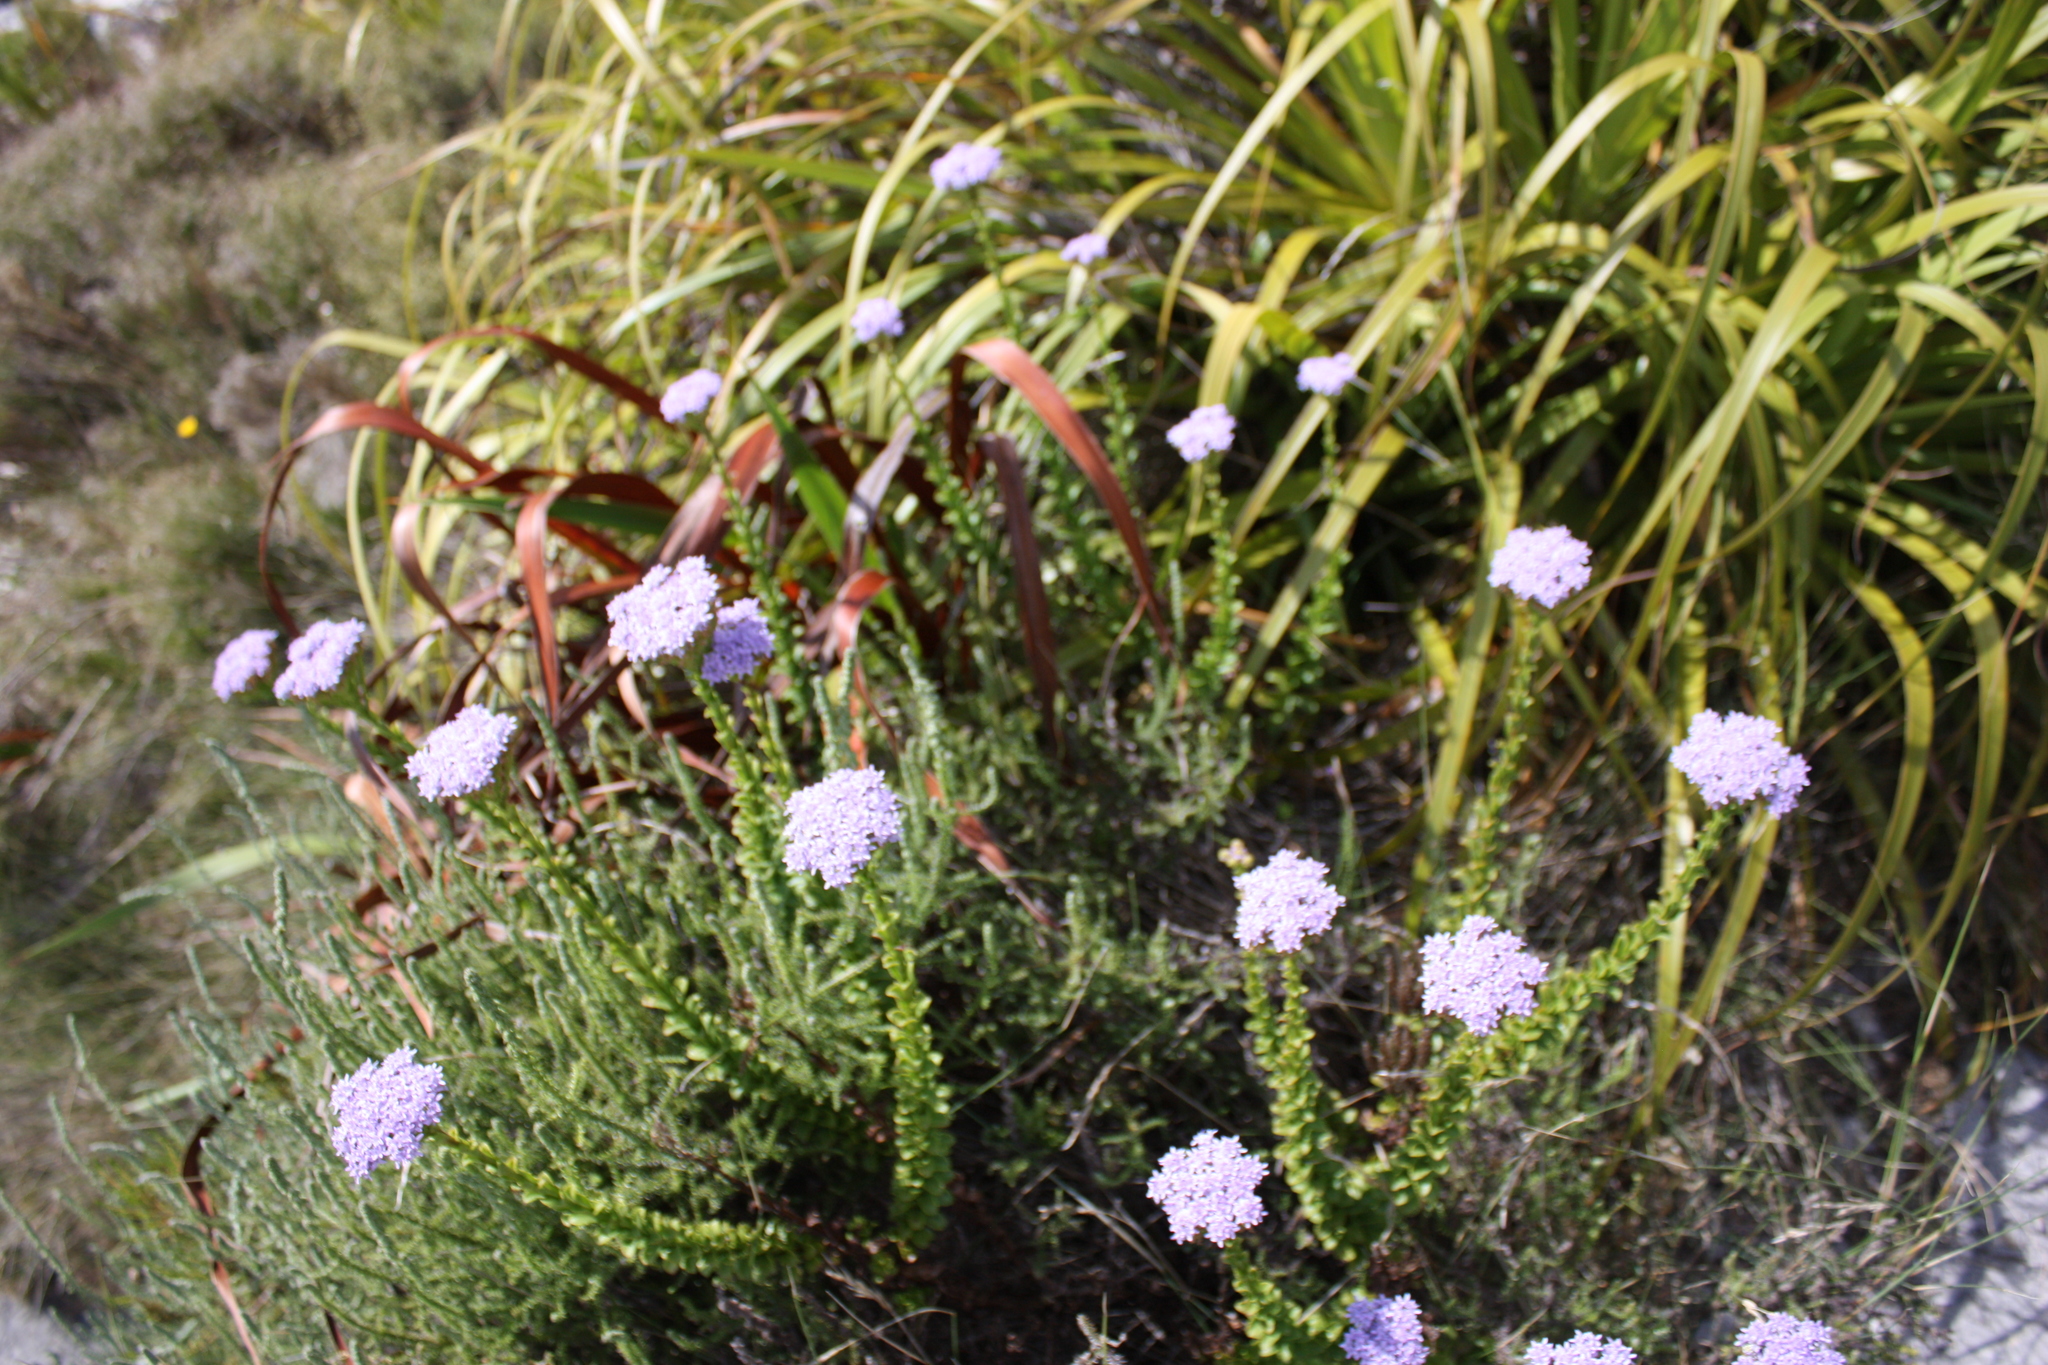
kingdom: Plantae
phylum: Tracheophyta
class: Magnoliopsida
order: Lamiales
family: Scrophulariaceae
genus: Pseudoselago
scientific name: Pseudoselago serrata
